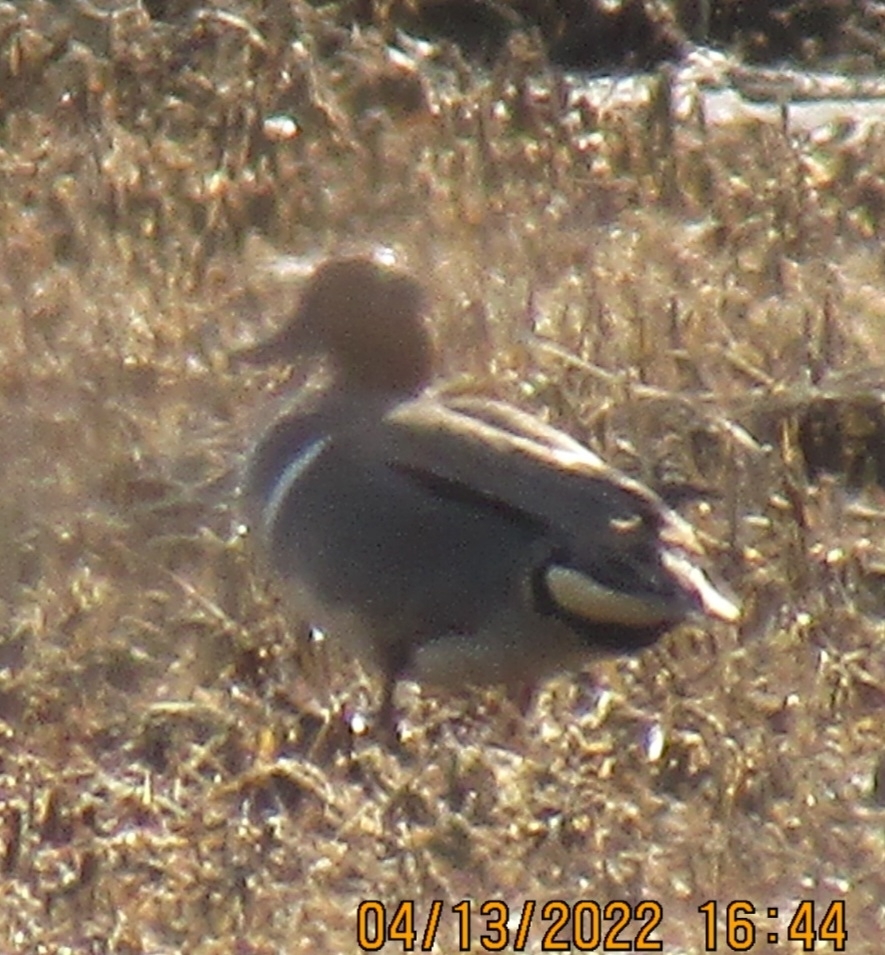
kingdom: Animalia
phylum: Chordata
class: Aves
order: Anseriformes
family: Anatidae
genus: Anas
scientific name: Anas crecca
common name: Eurasian teal
